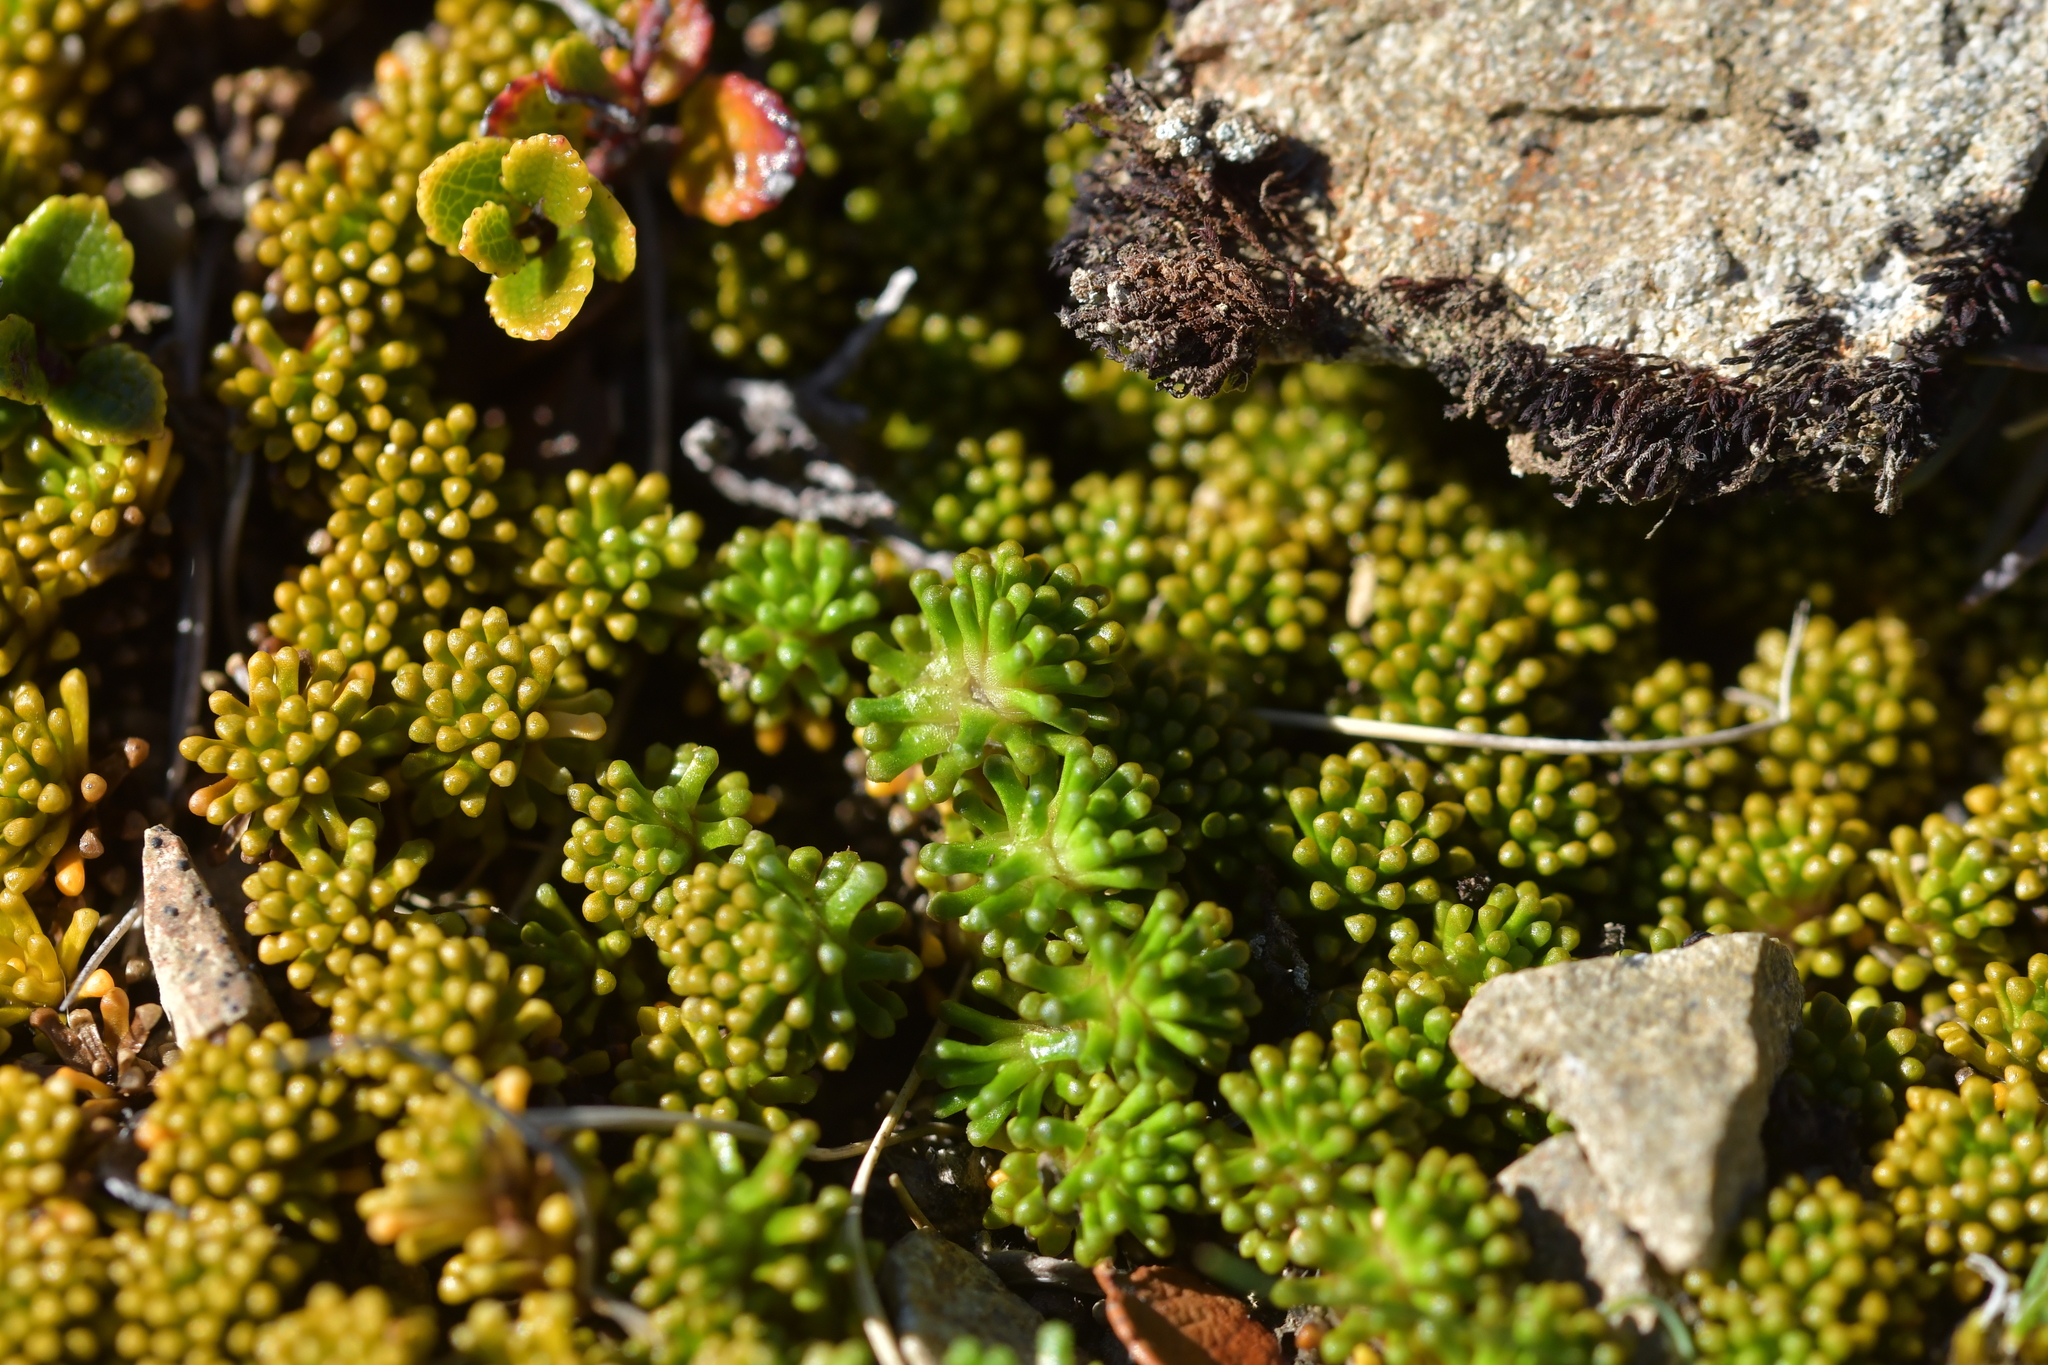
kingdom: Plantae
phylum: Tracheophyta
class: Magnoliopsida
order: Asterales
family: Stylidiaceae
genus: Phyllachne
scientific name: Phyllachne colensoi
